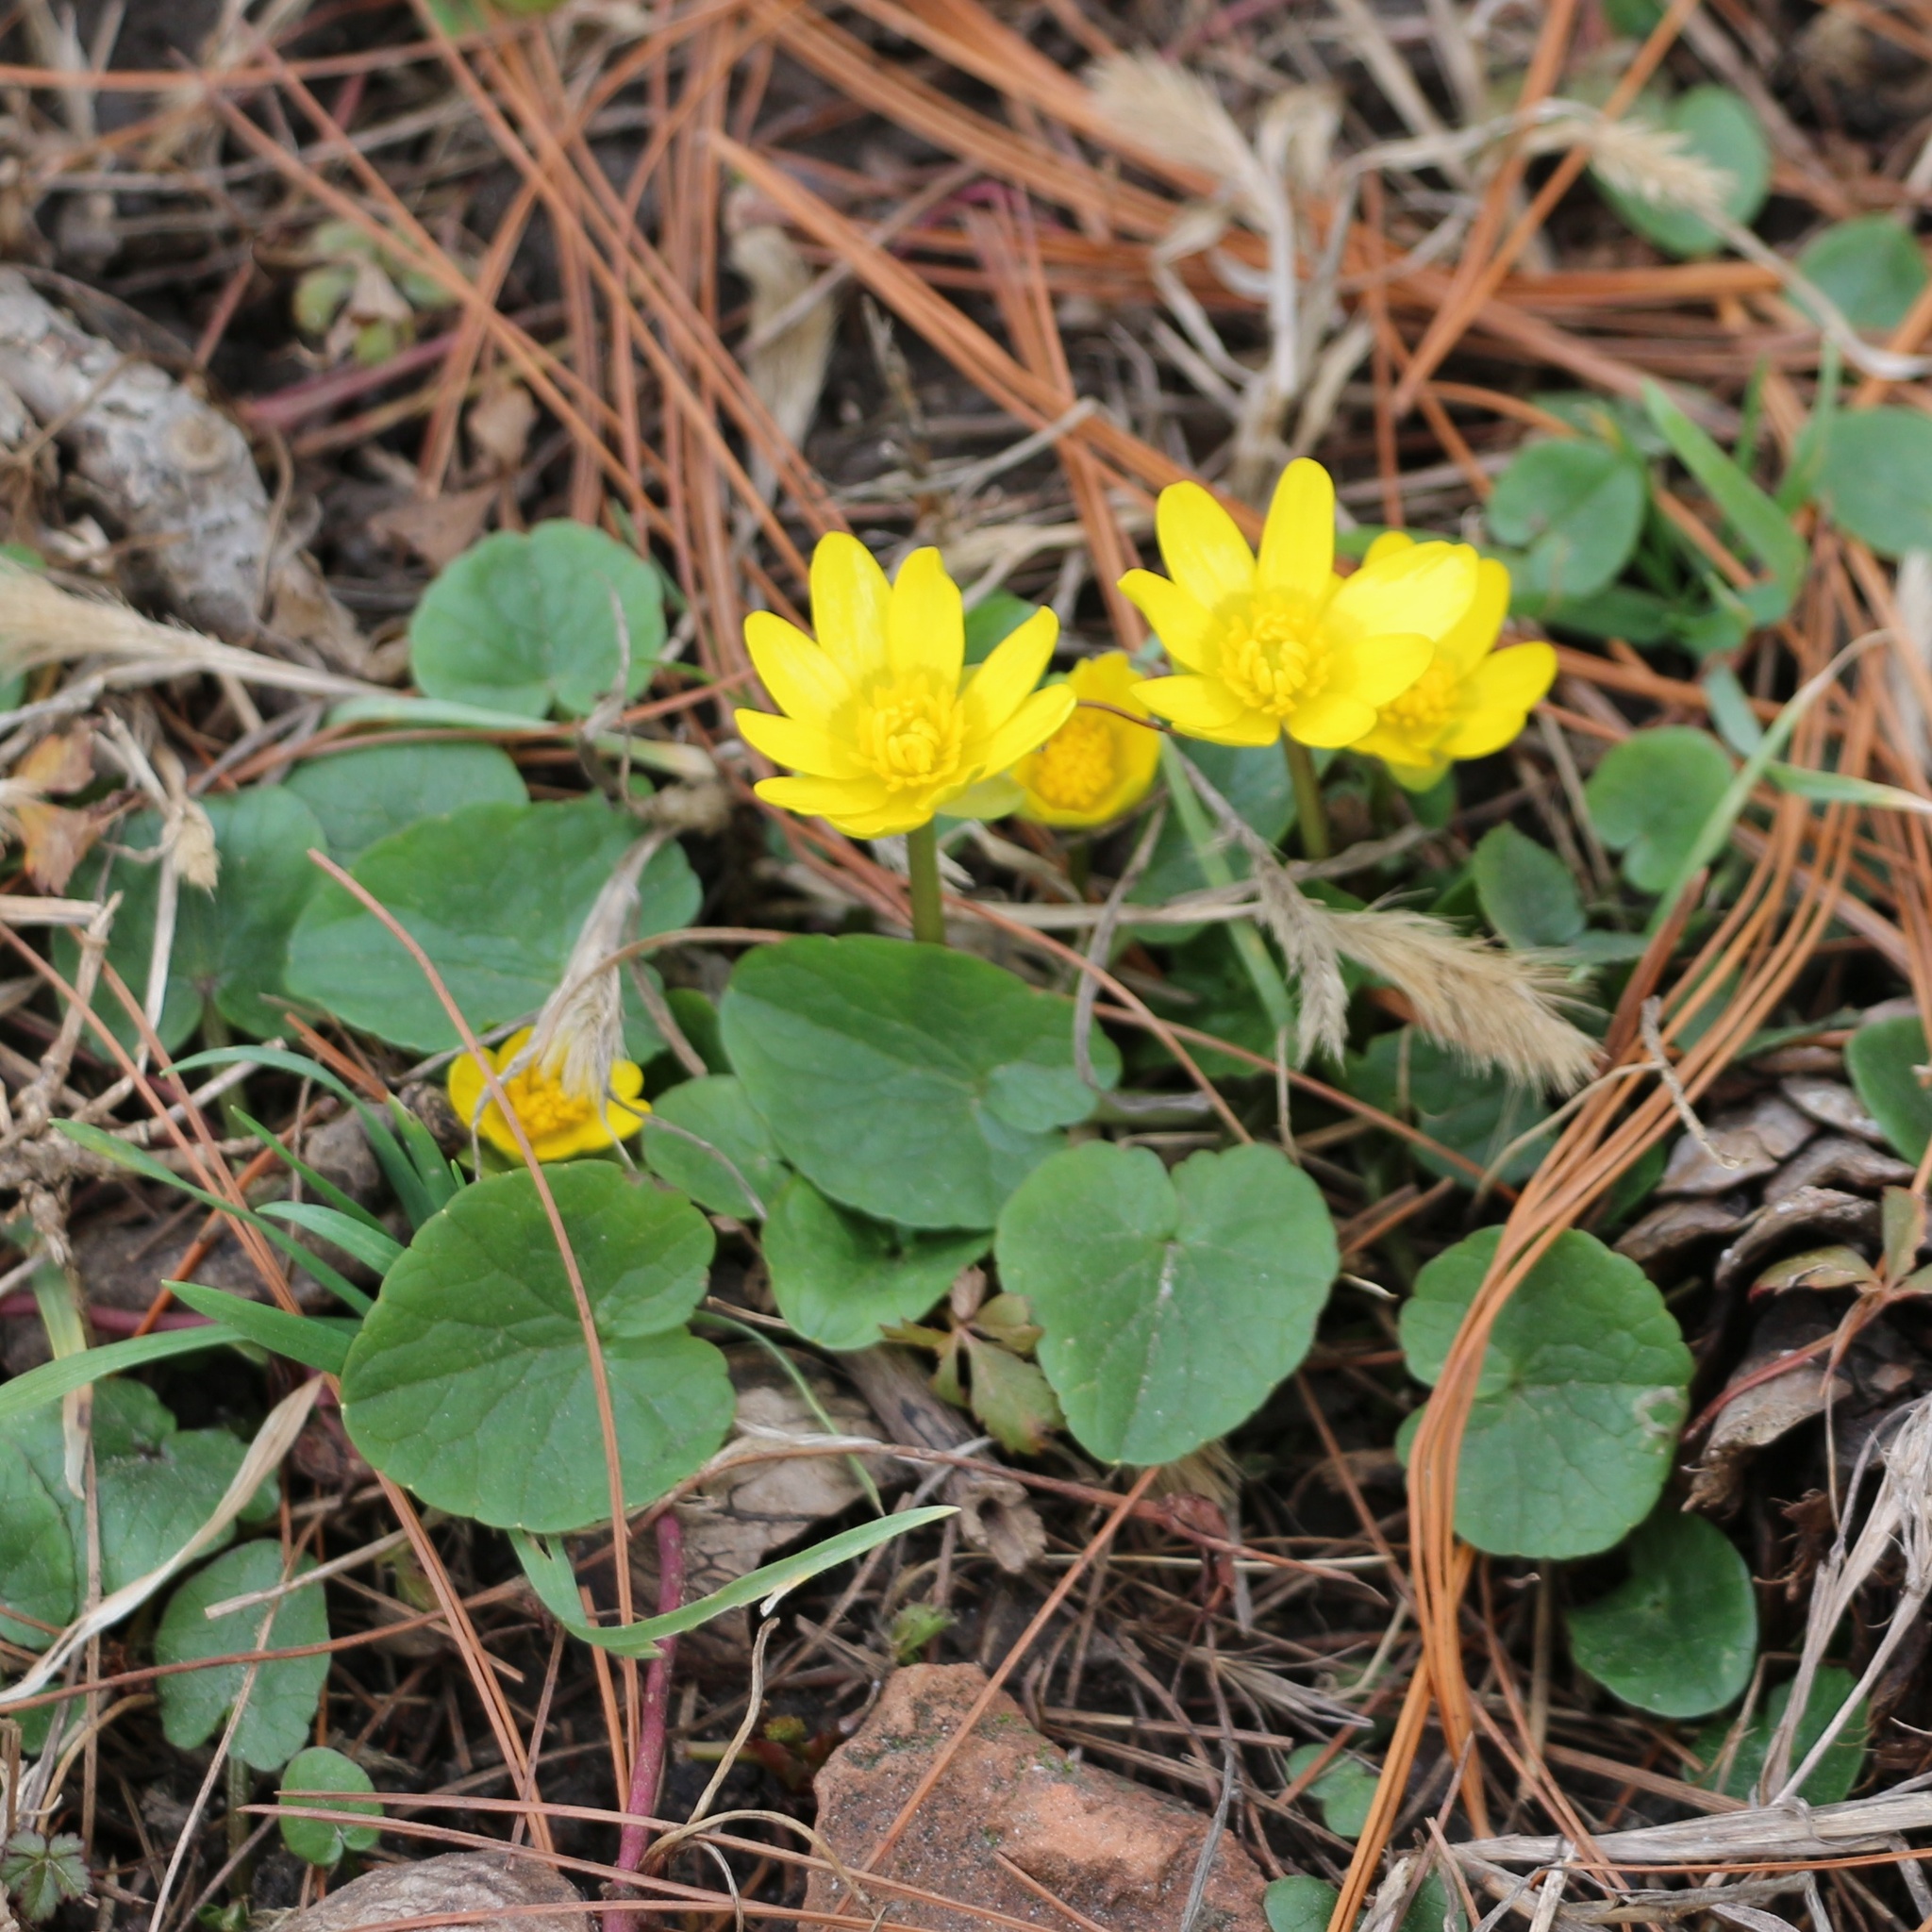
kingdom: Plantae
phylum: Tracheophyta
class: Magnoliopsida
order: Ranunculales
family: Ranunculaceae
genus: Ficaria
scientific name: Ficaria verna
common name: Lesser celandine
